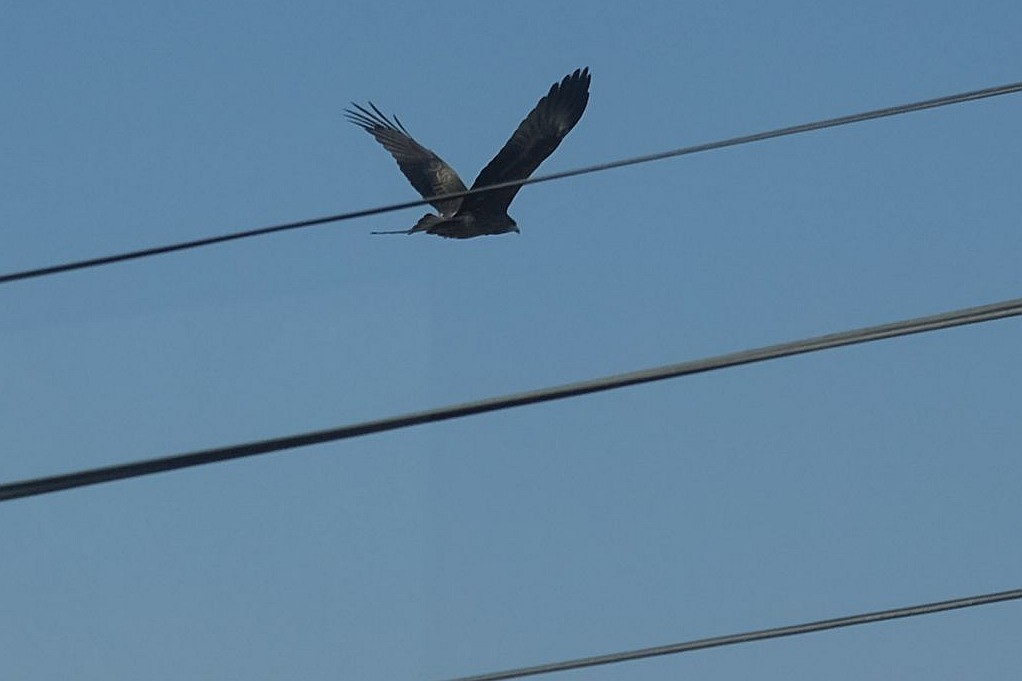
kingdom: Animalia
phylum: Chordata
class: Aves
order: Accipitriformes
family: Accipitridae
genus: Milvus
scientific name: Milvus migrans
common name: Black kite
